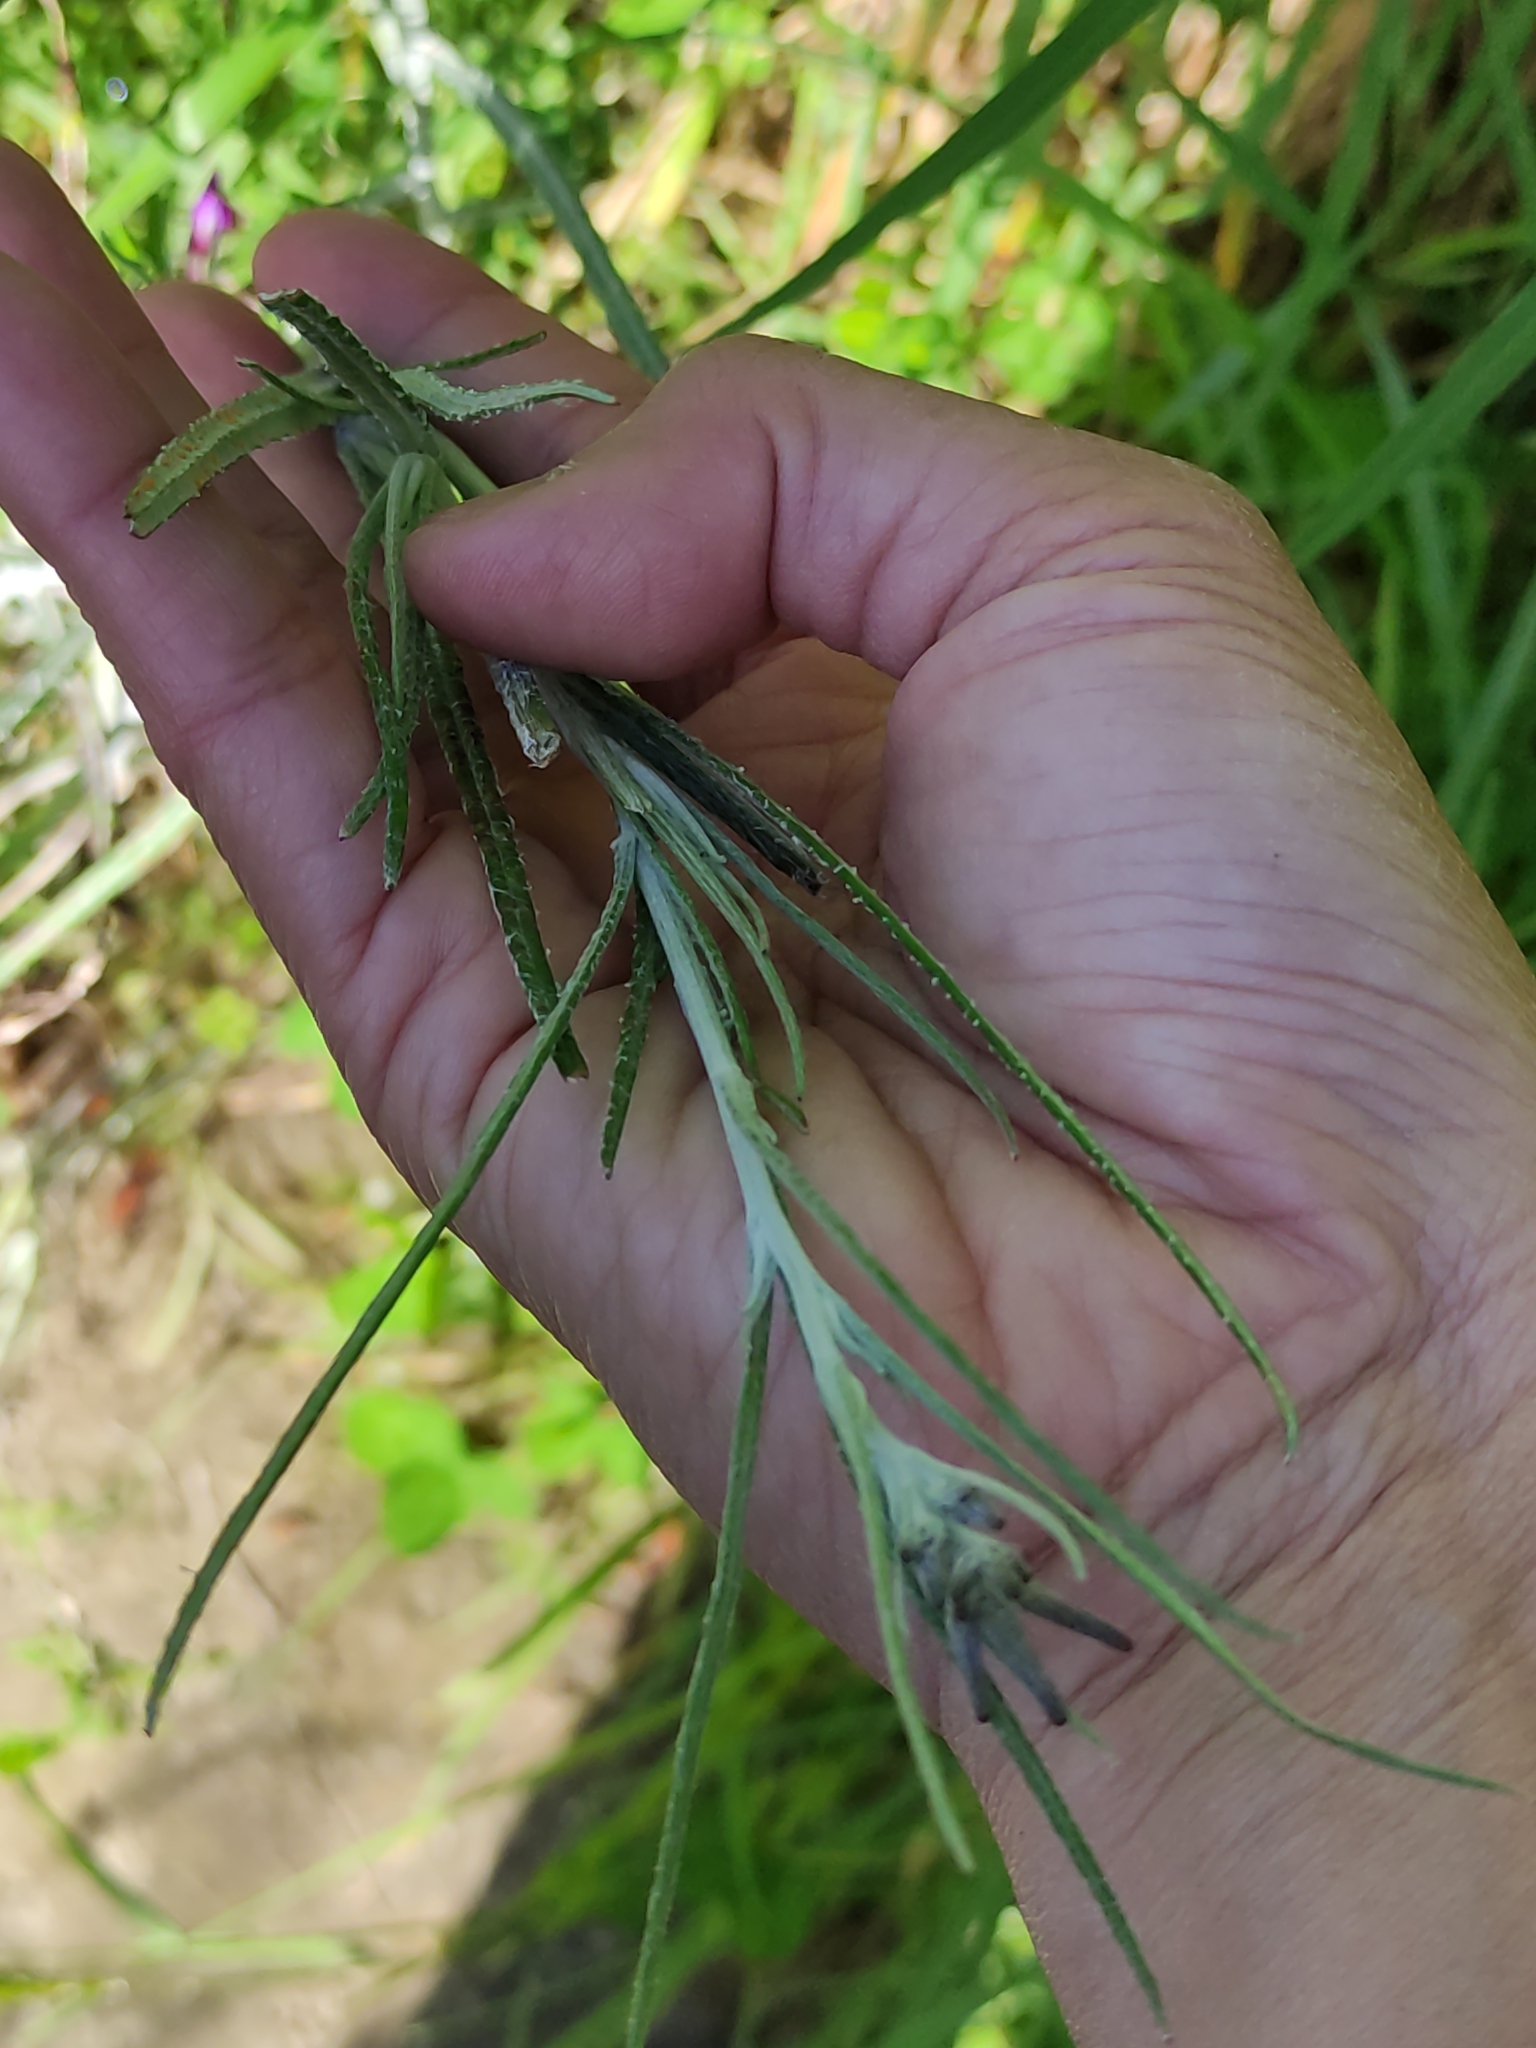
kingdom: Plantae
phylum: Tracheophyta
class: Magnoliopsida
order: Asterales
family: Asteraceae
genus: Senecio
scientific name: Senecio quadridentatus
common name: Cotton fireweed
